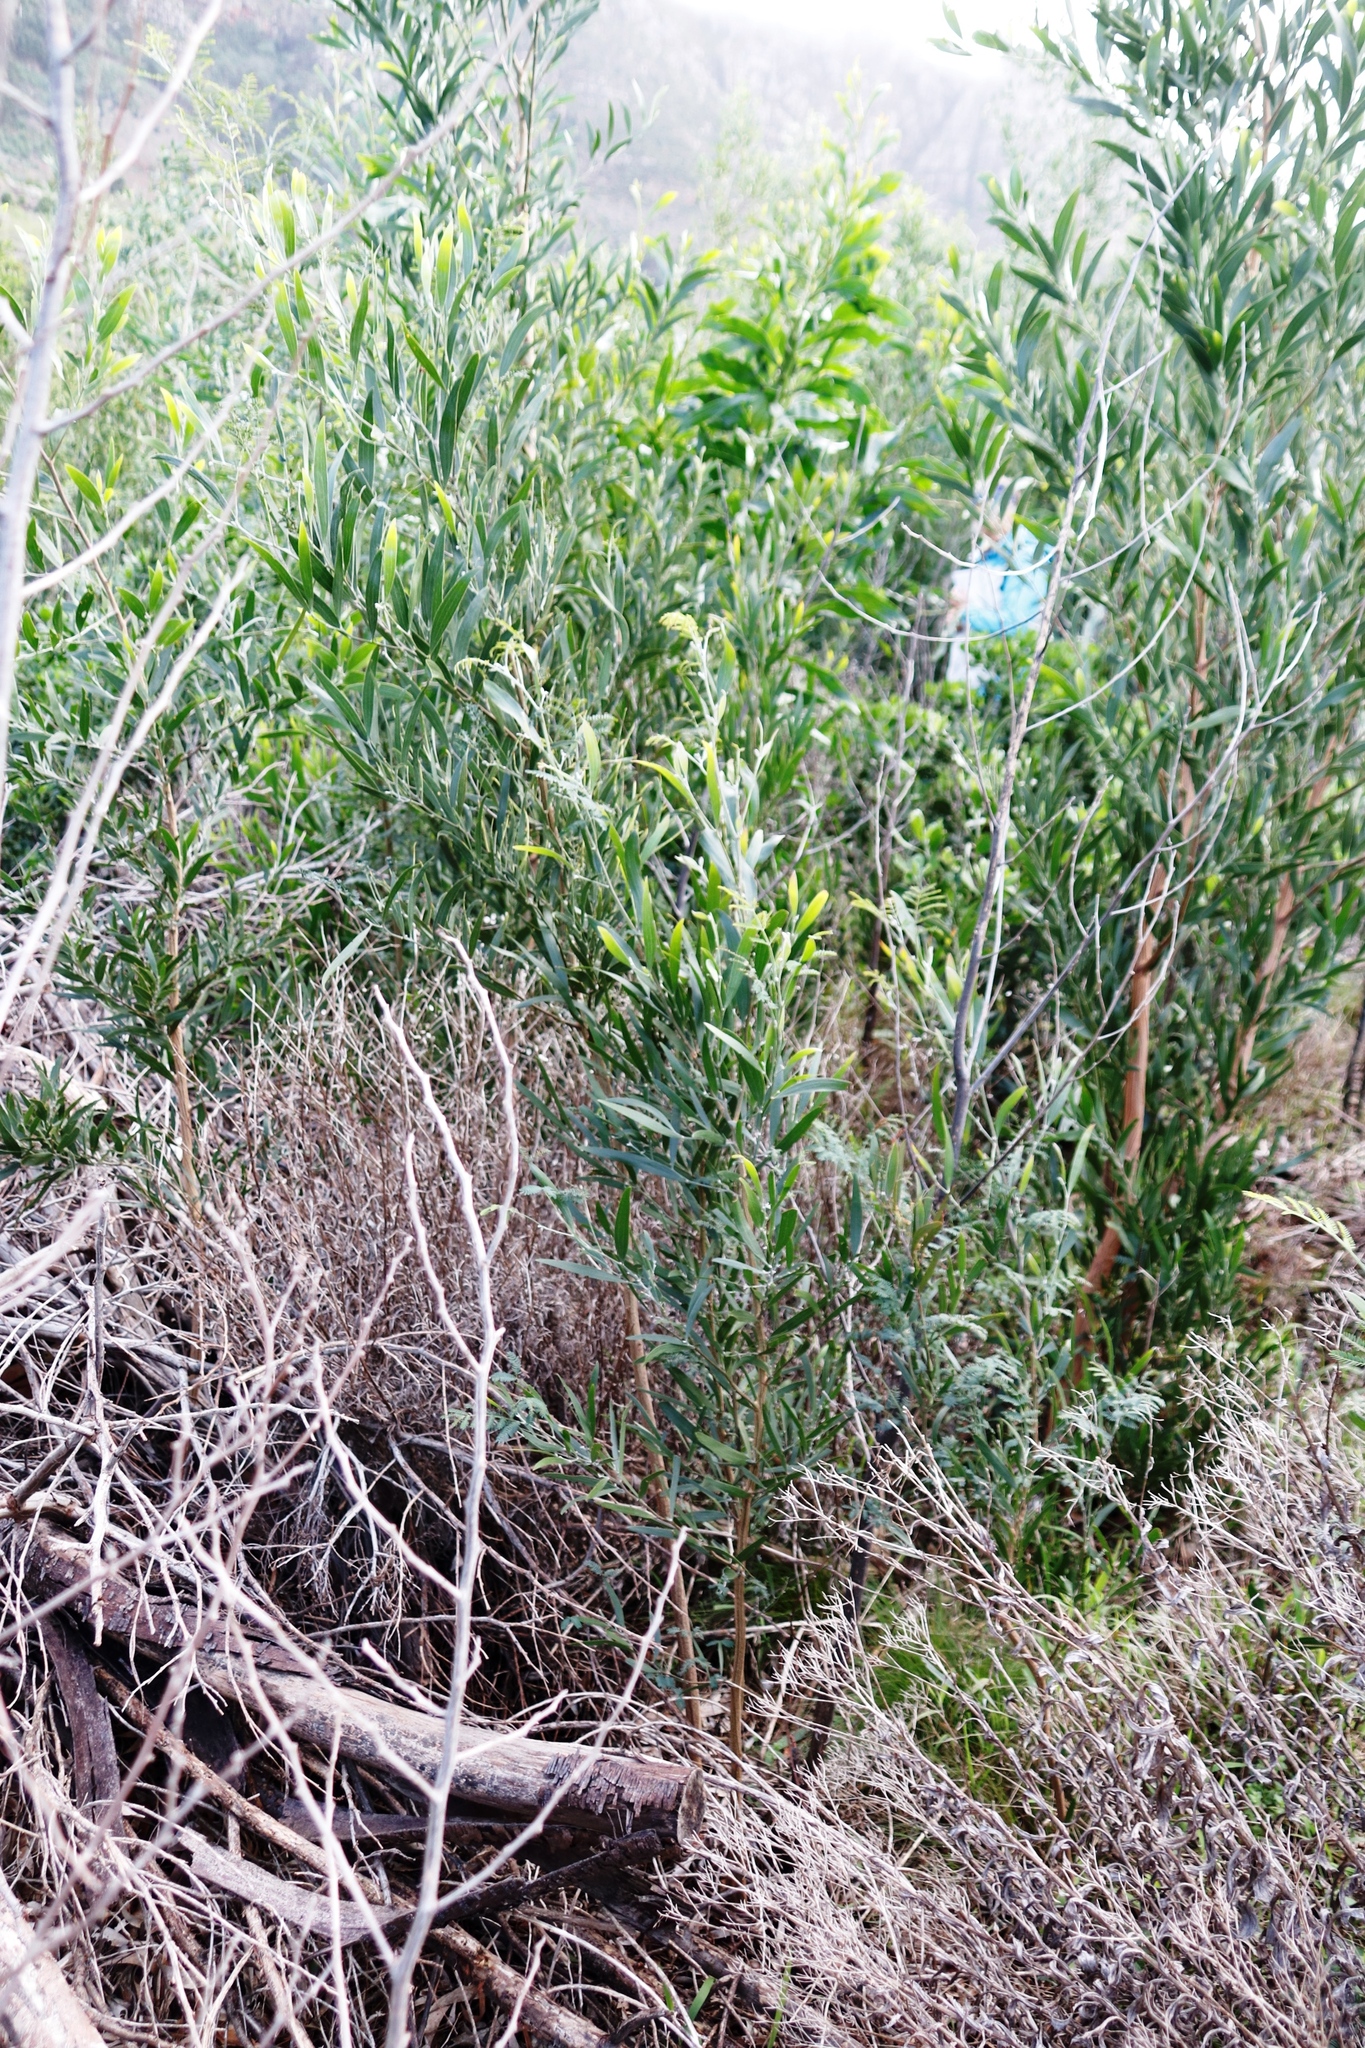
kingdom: Plantae
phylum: Tracheophyta
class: Magnoliopsida
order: Fabales
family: Fabaceae
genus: Acacia
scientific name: Acacia melanoxylon
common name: Blackwood
